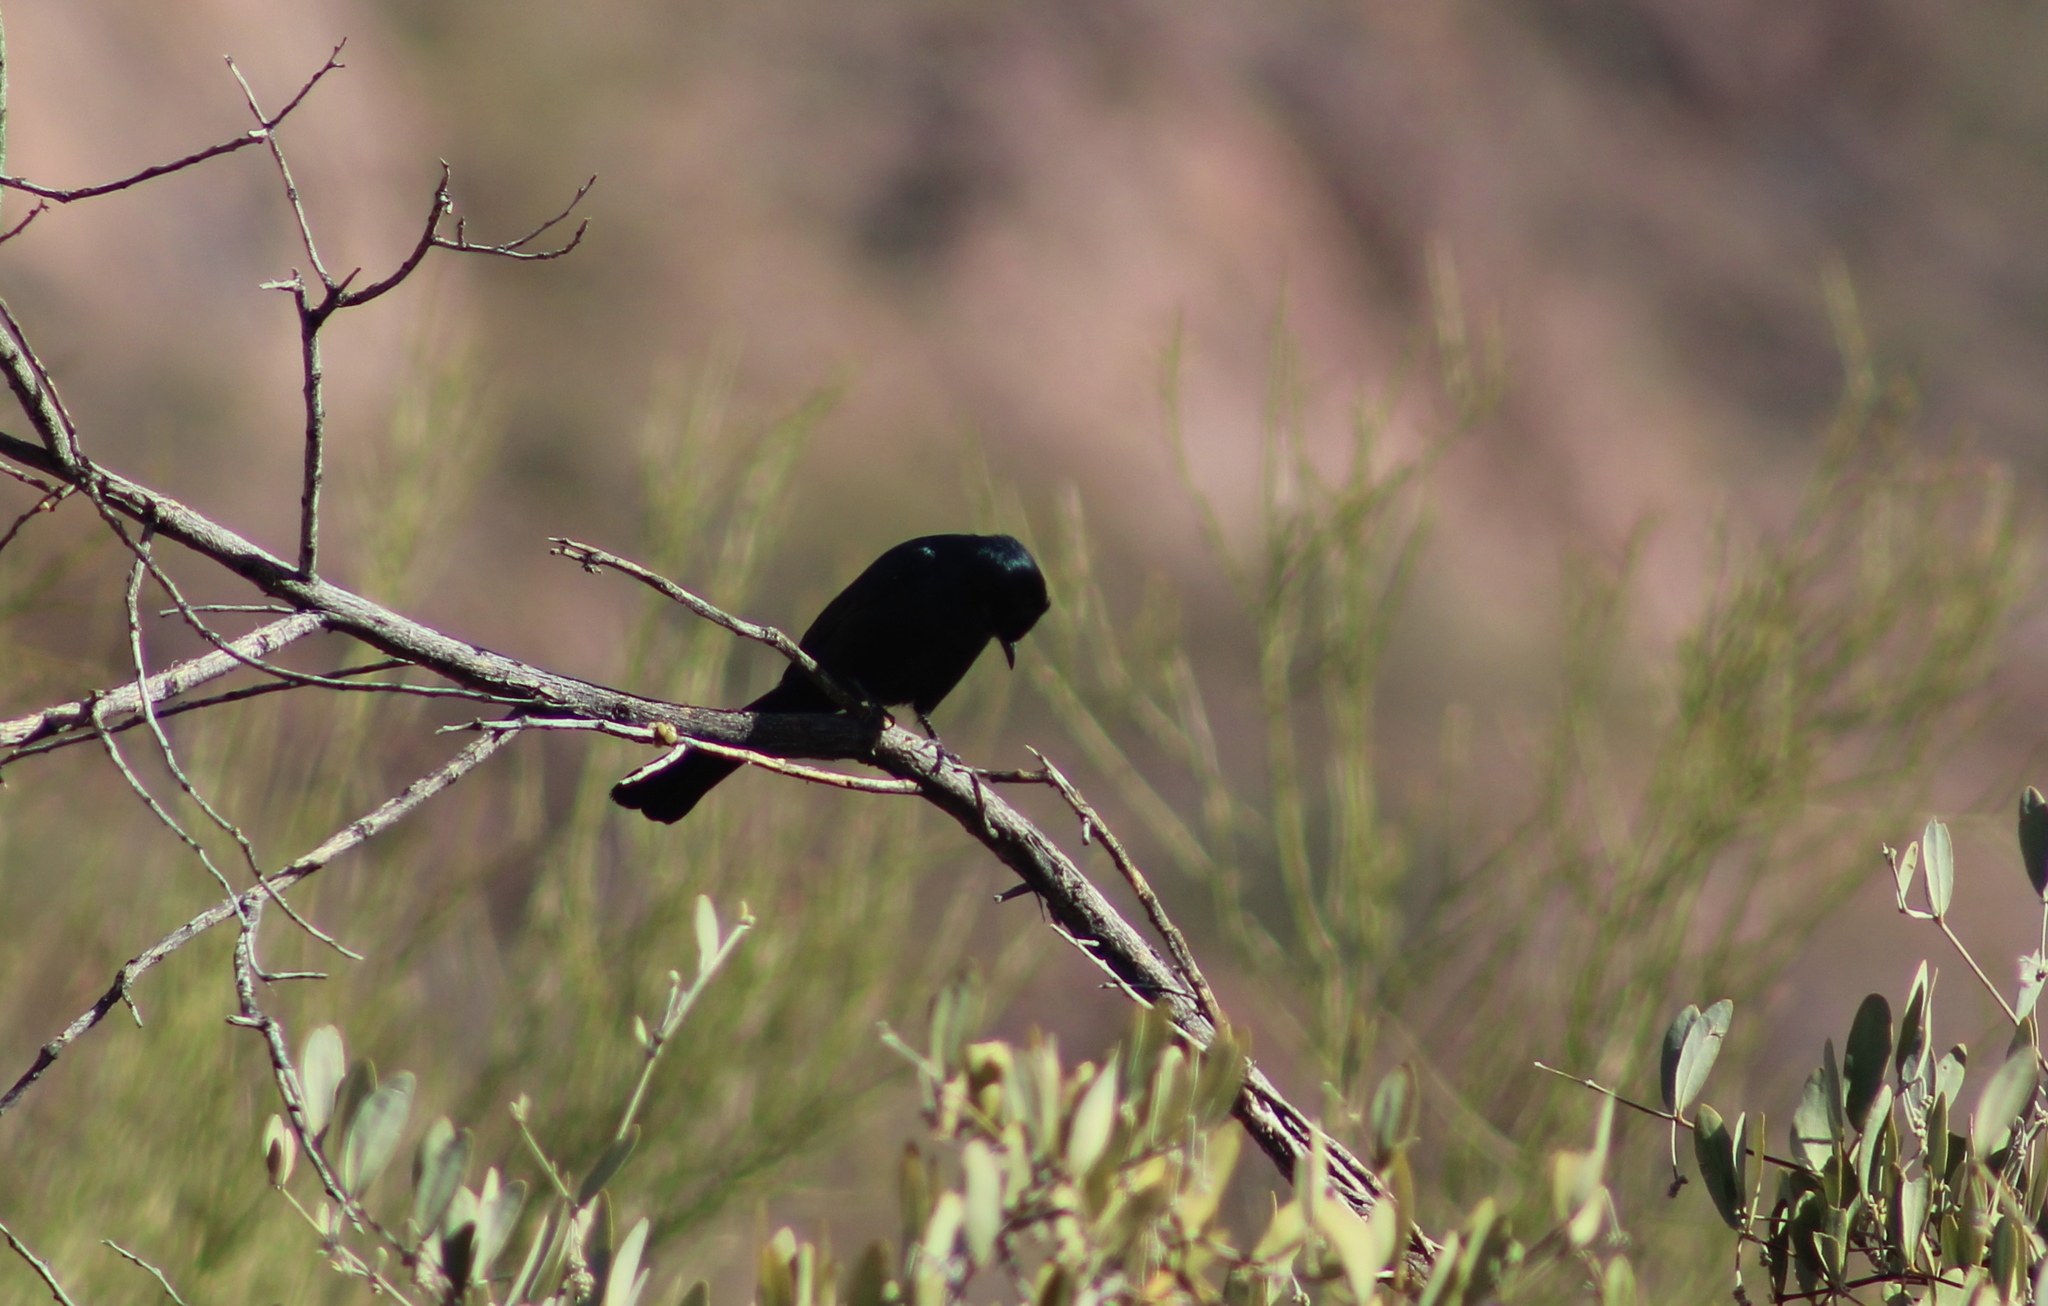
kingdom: Animalia
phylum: Chordata
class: Aves
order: Passeriformes
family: Ptilogonatidae
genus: Phainopepla
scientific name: Phainopepla nitens
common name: Phainopepla
